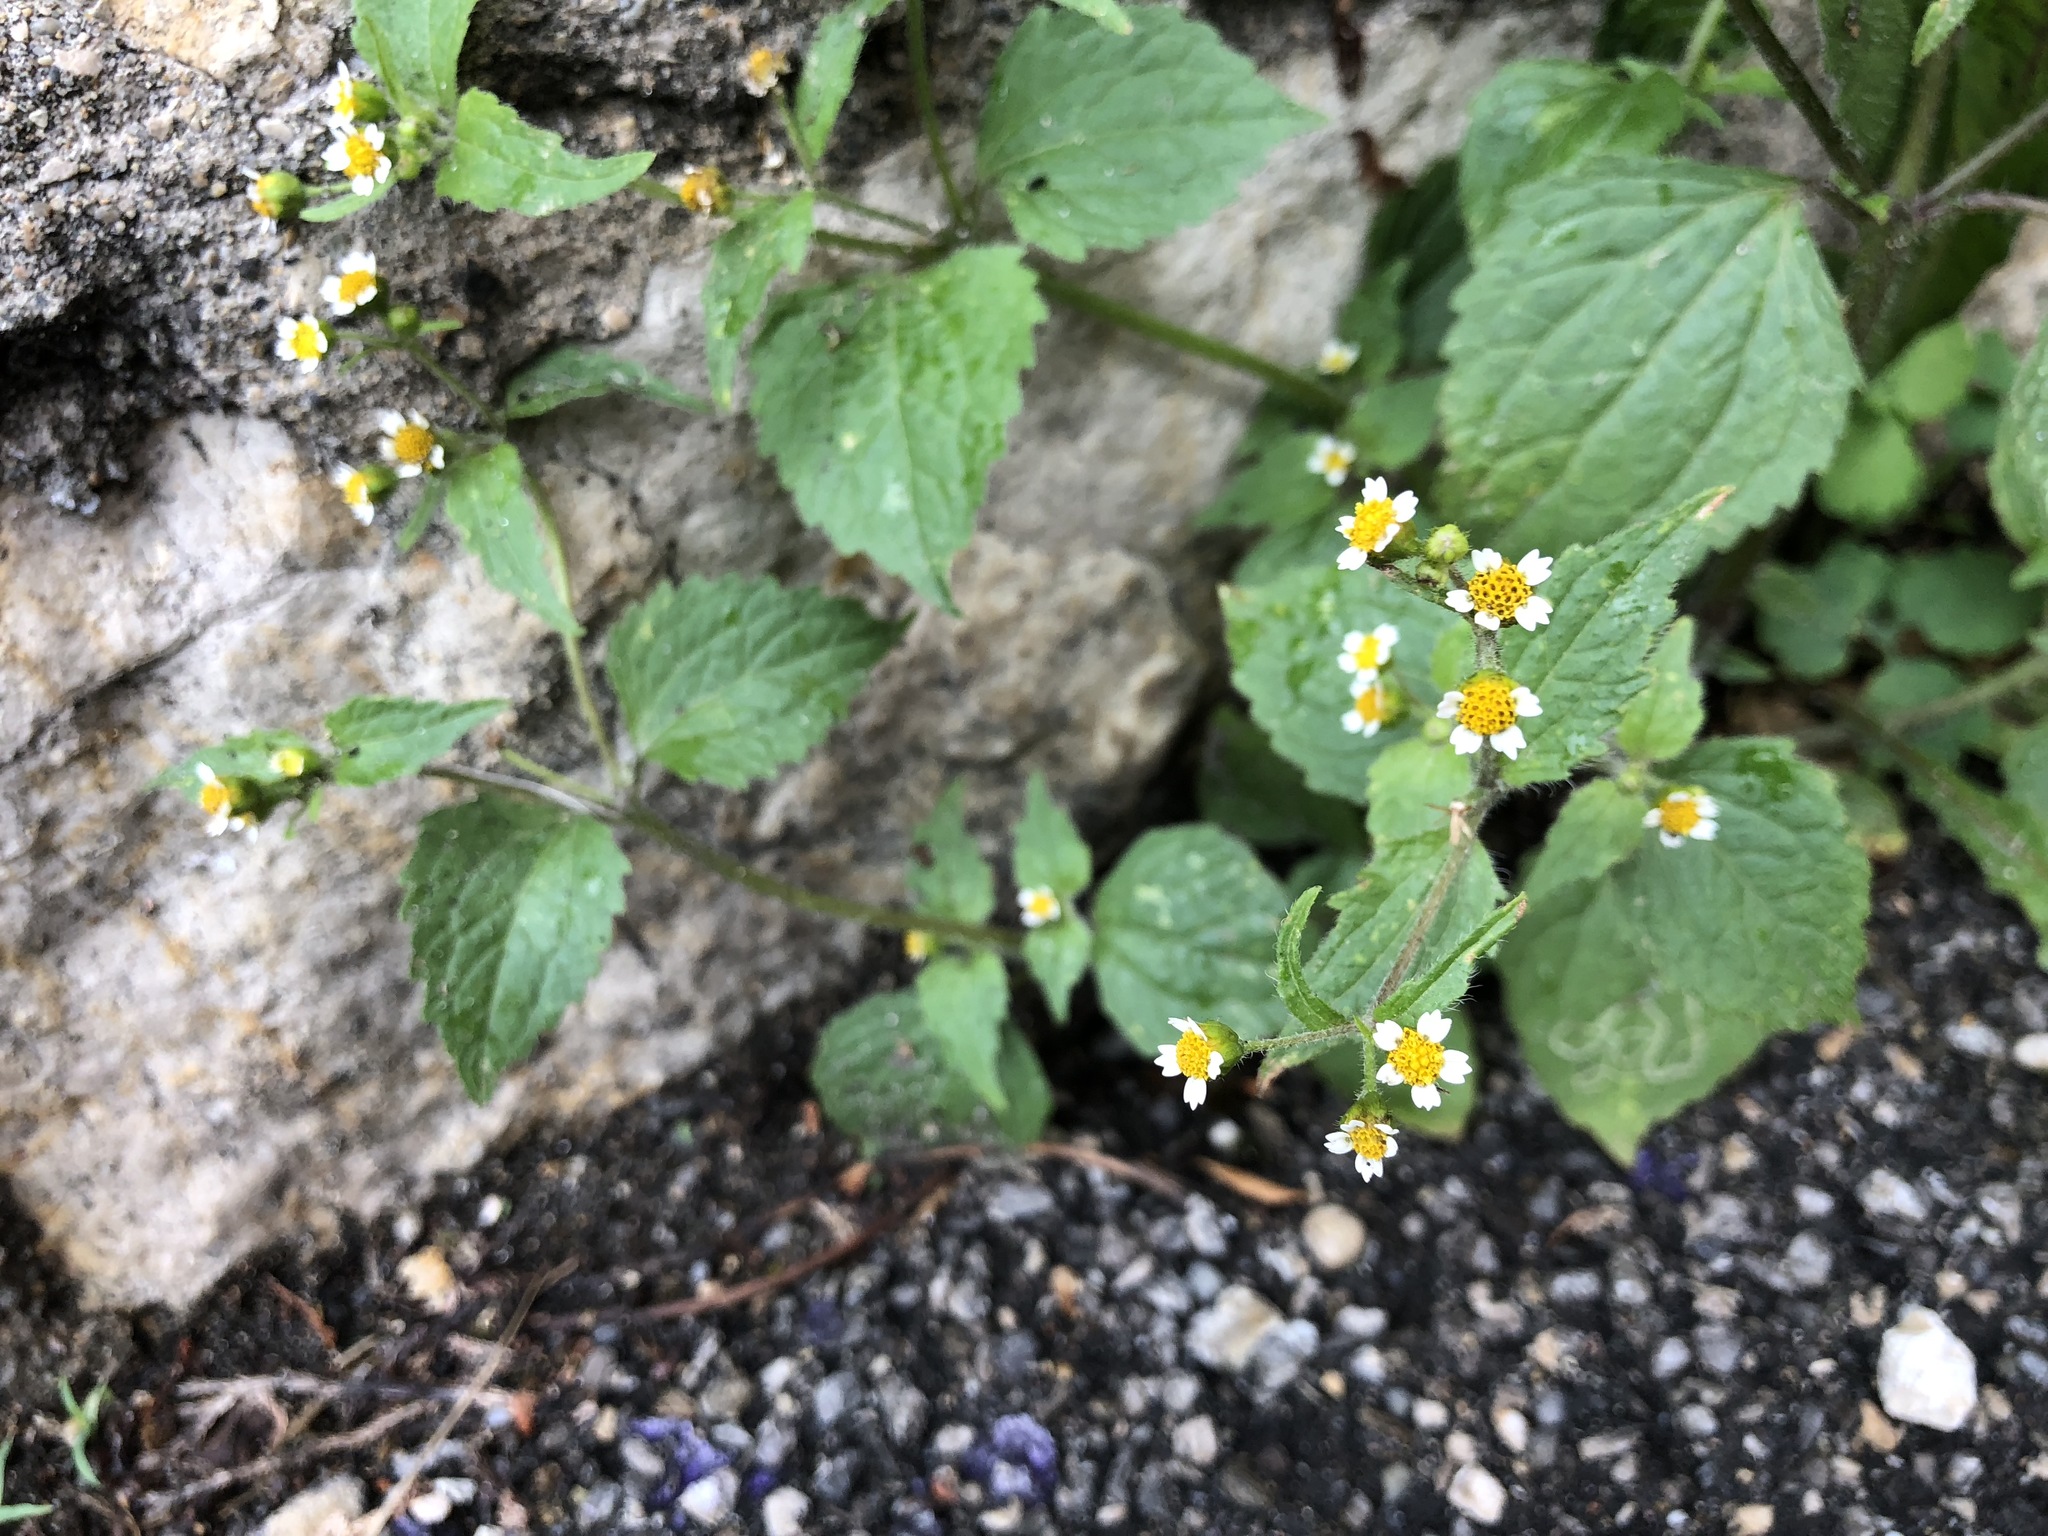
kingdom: Plantae
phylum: Tracheophyta
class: Magnoliopsida
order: Asterales
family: Asteraceae
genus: Galinsoga
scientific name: Galinsoga quadriradiata
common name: Shaggy soldier
